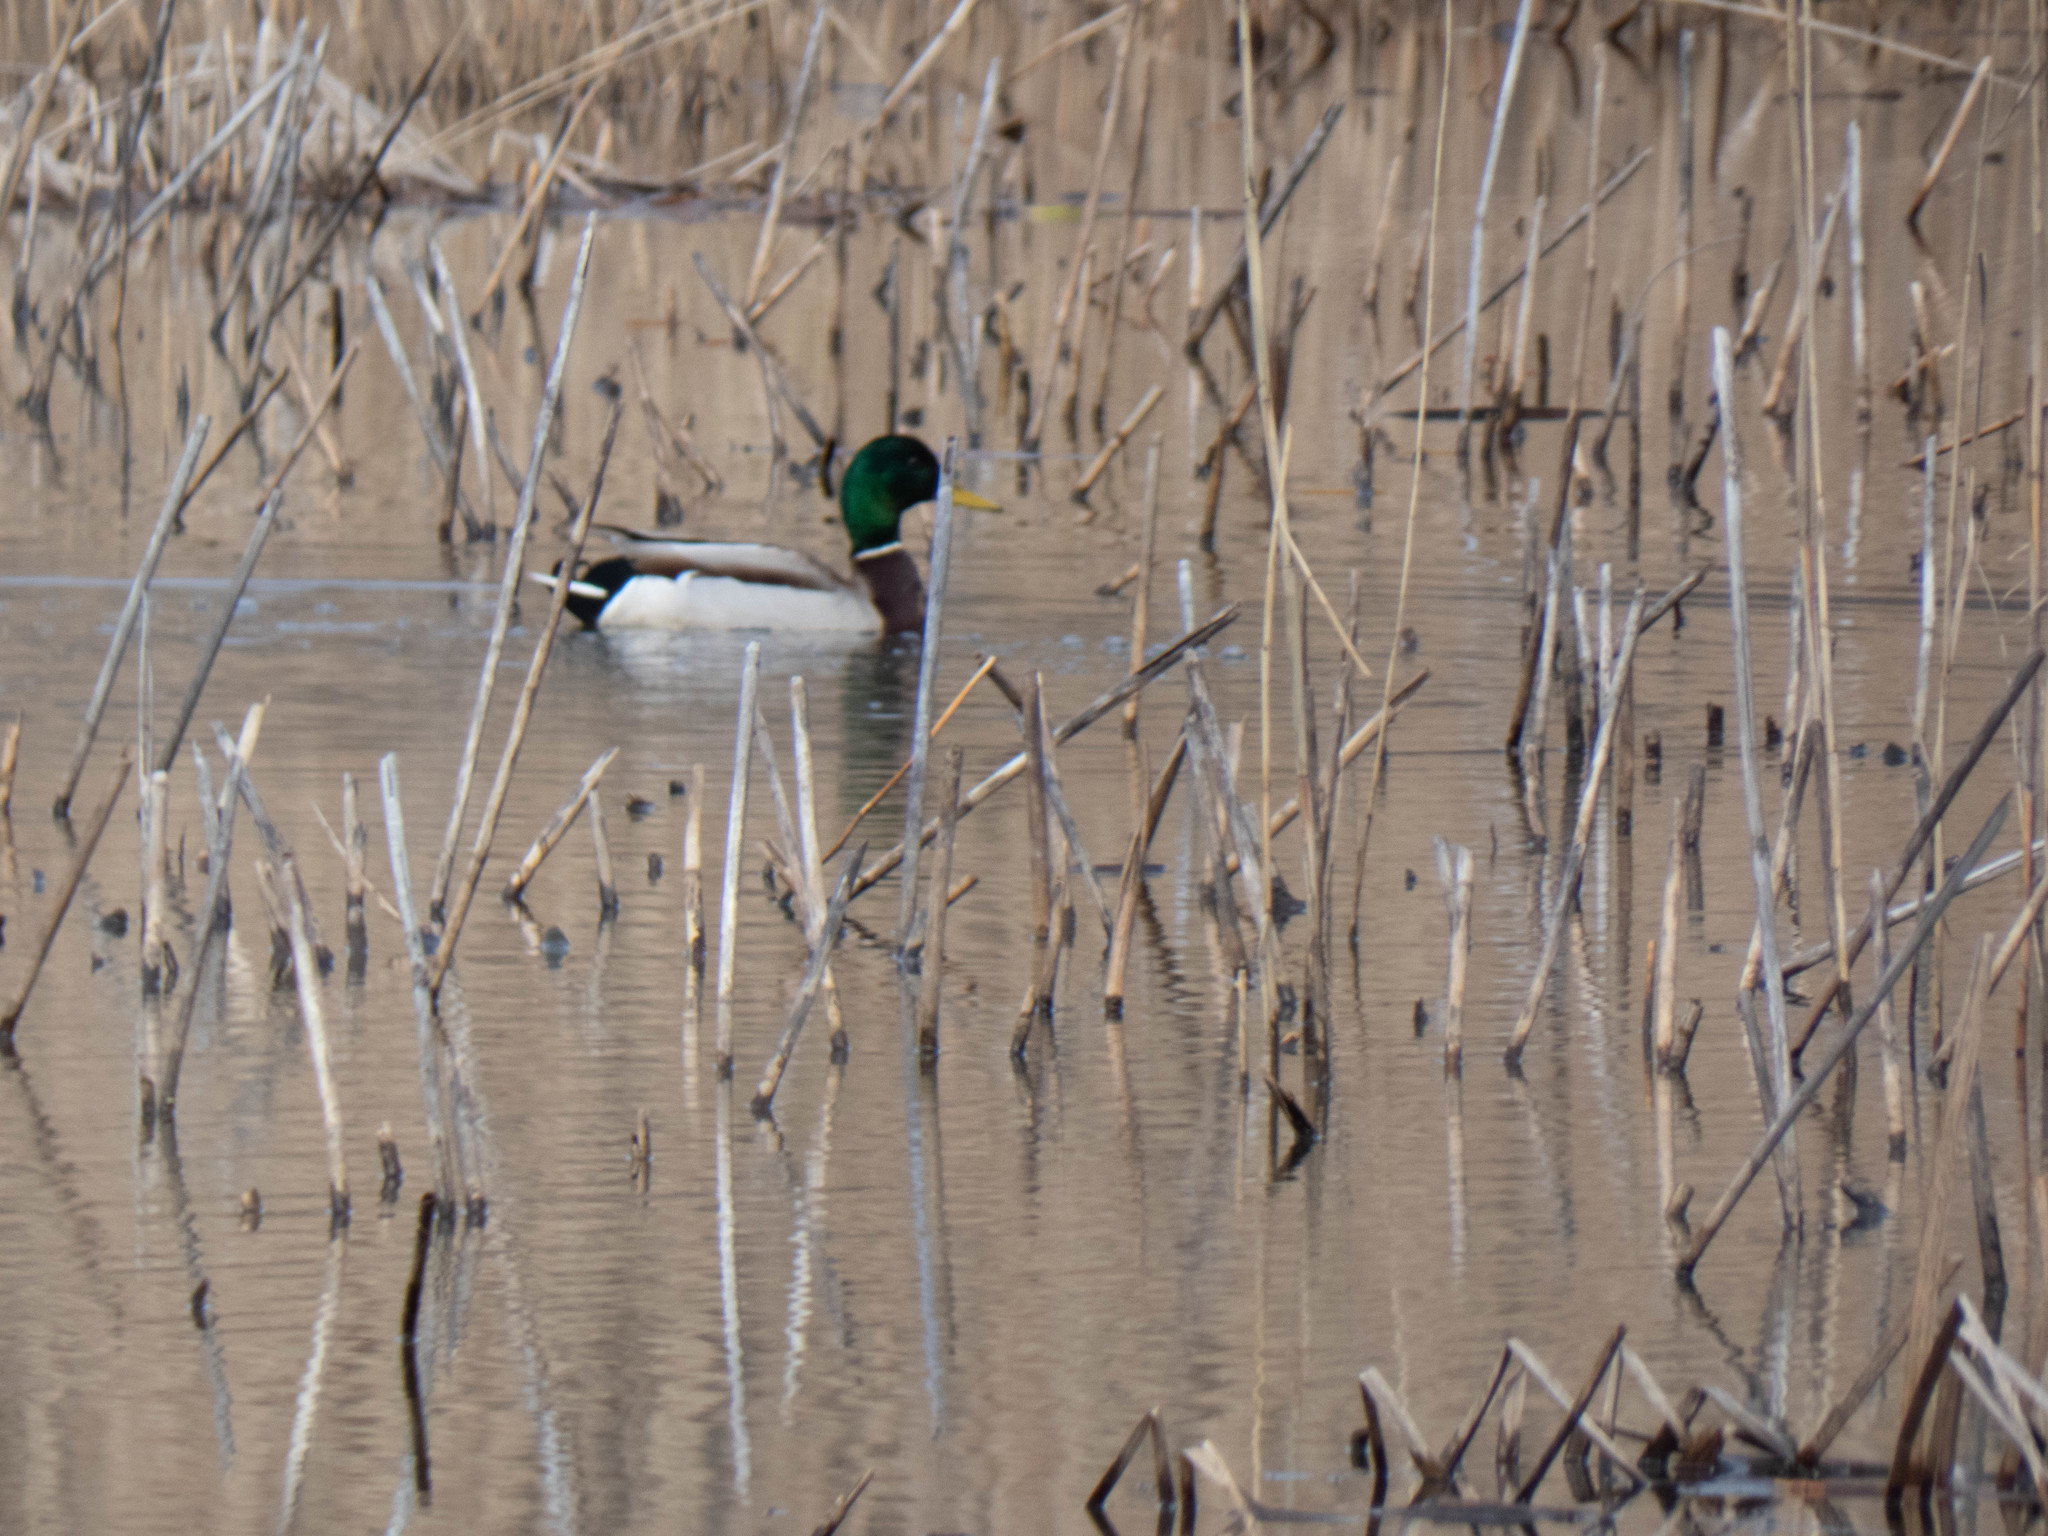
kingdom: Animalia
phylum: Chordata
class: Aves
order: Anseriformes
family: Anatidae
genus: Anas
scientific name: Anas platyrhynchos
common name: Mallard
